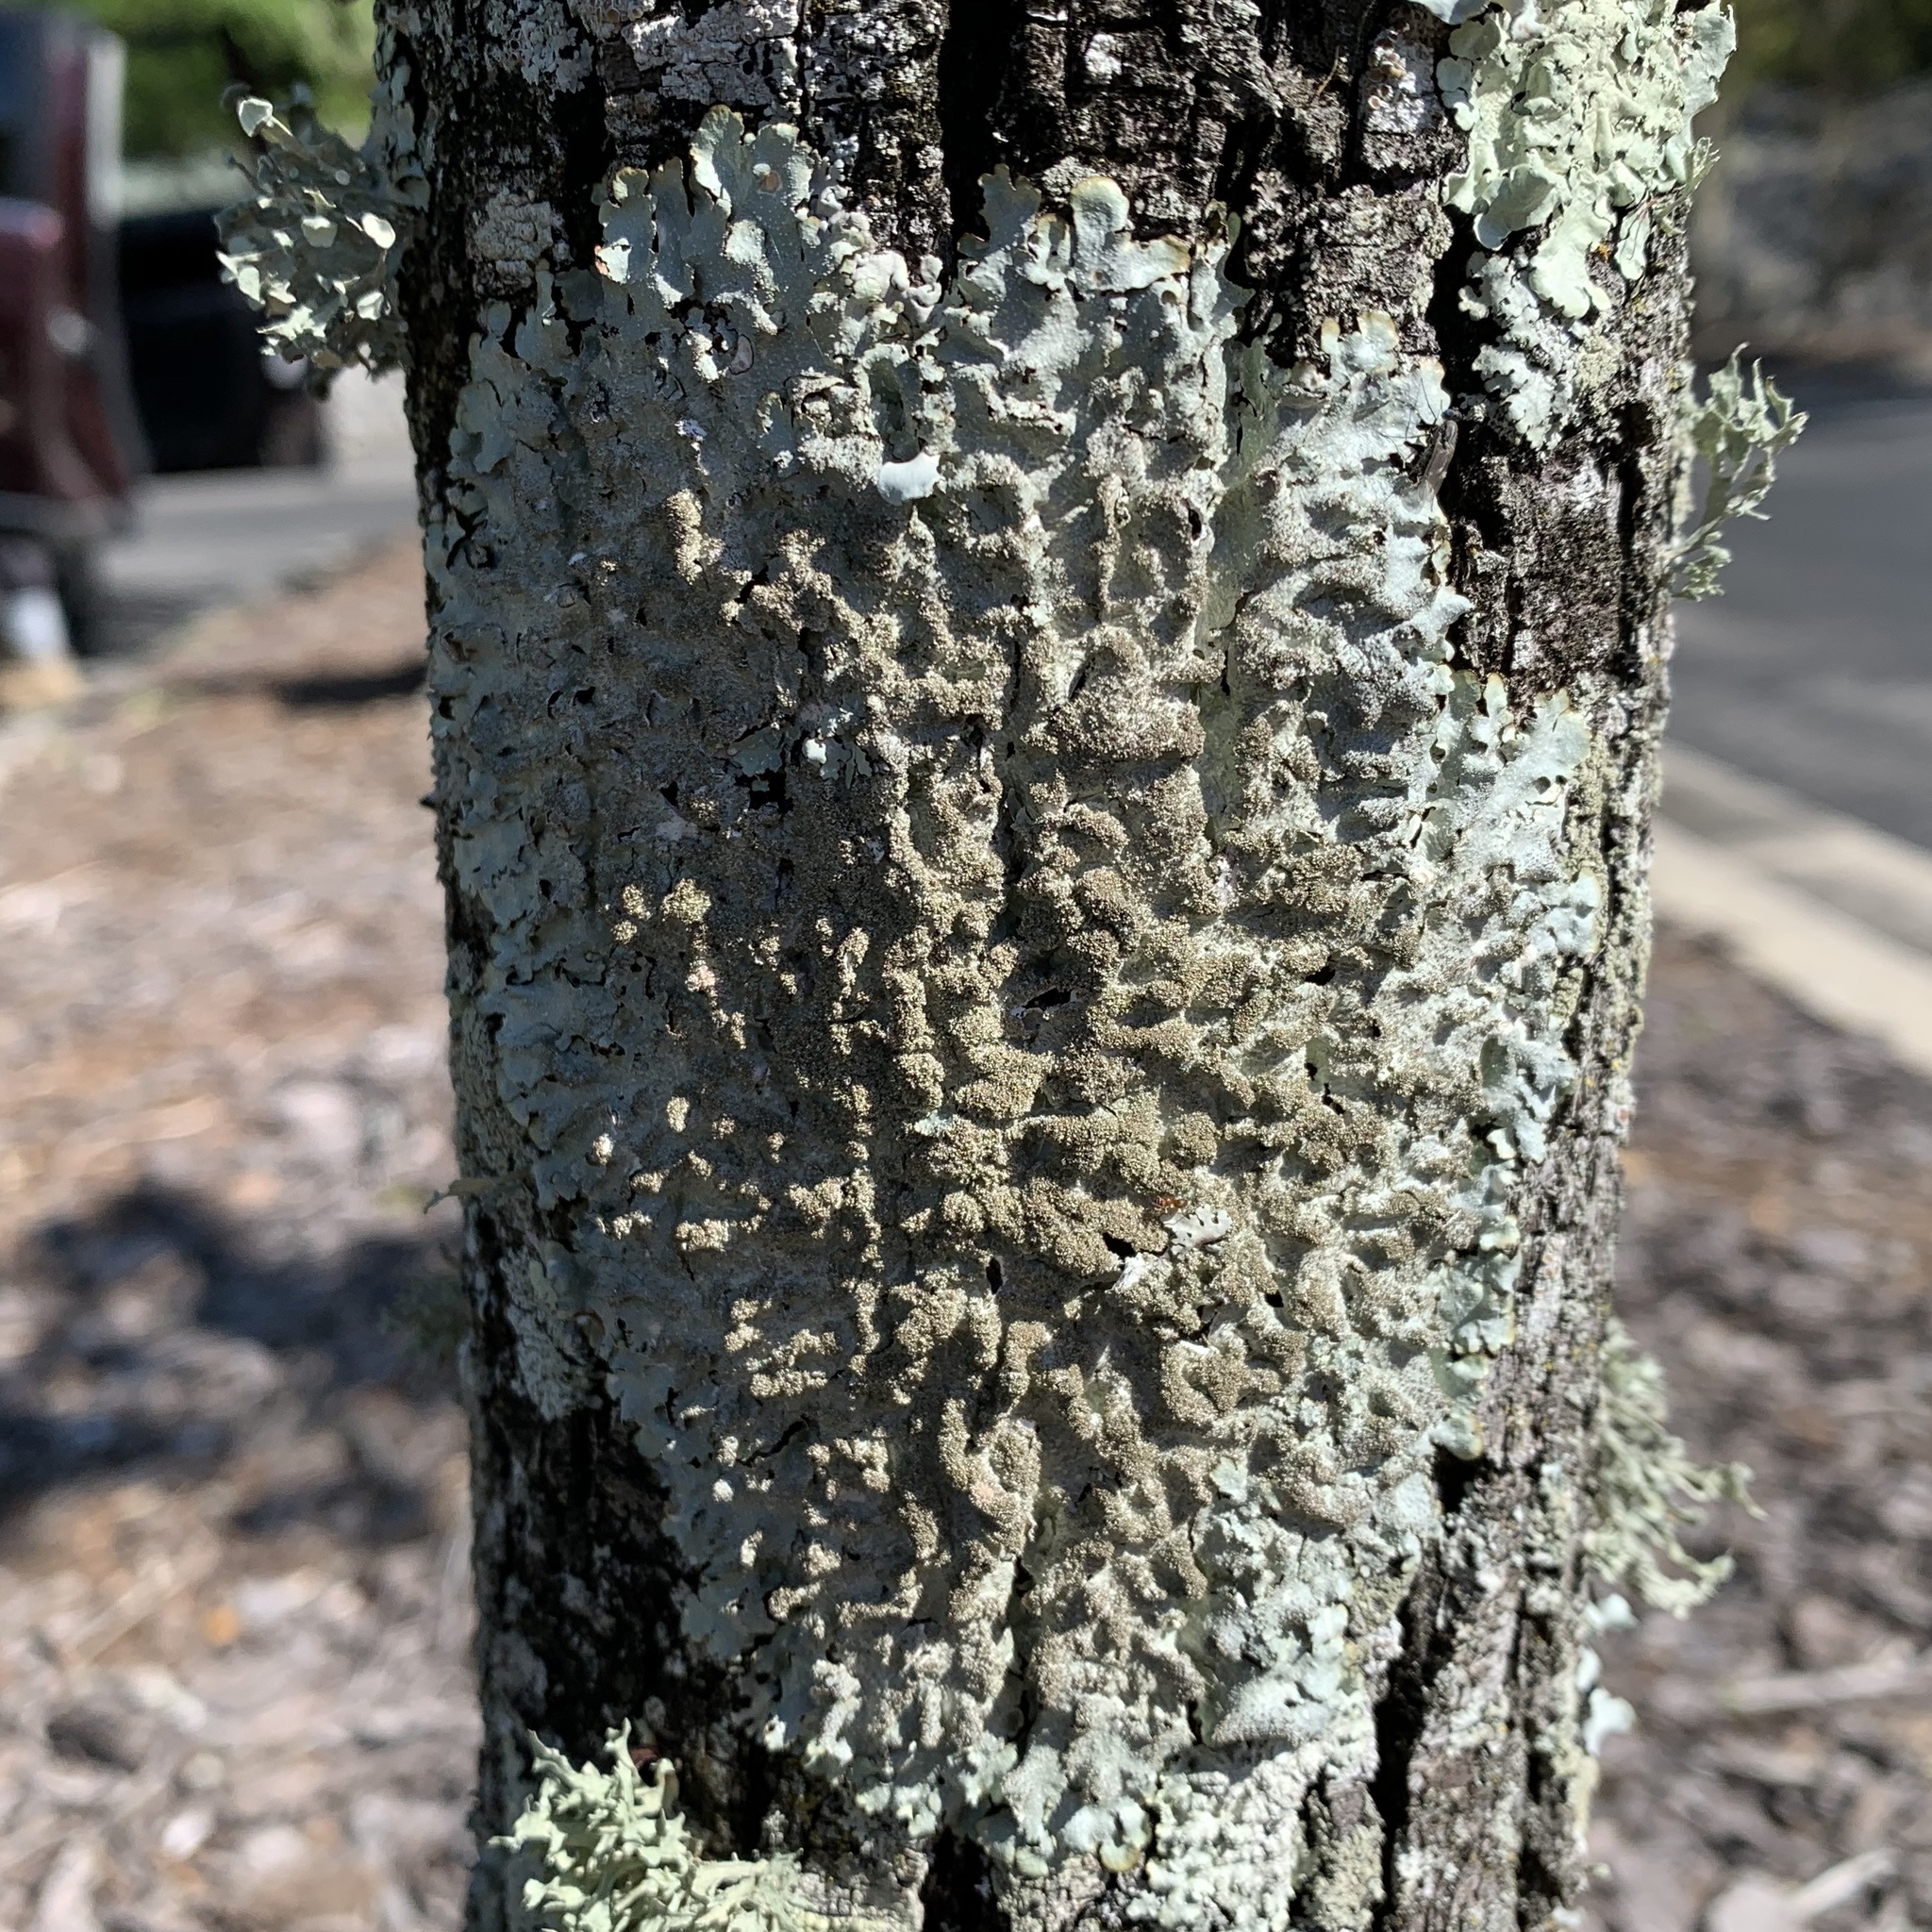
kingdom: Fungi
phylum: Ascomycota
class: Lecanoromycetes
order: Lecanorales
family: Parmeliaceae
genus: Punctelia
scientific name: Punctelia rudecta
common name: Rough speckled shield lichen
